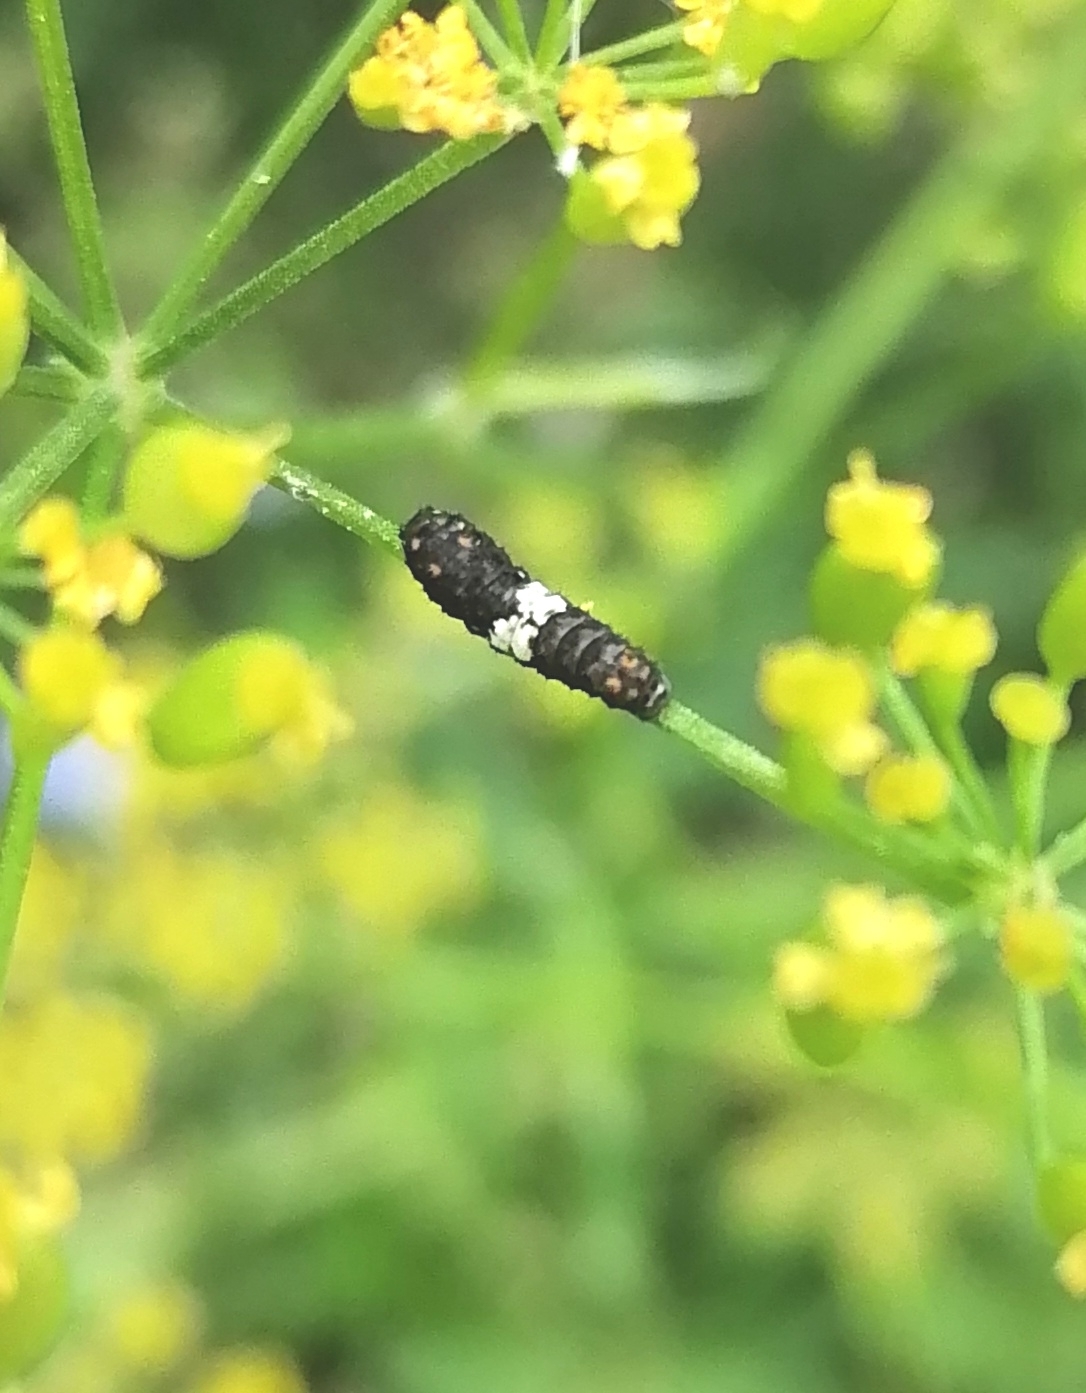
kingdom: Animalia
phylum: Arthropoda
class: Insecta
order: Lepidoptera
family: Papilionidae
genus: Papilio
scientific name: Papilio machaon
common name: Swallowtail
